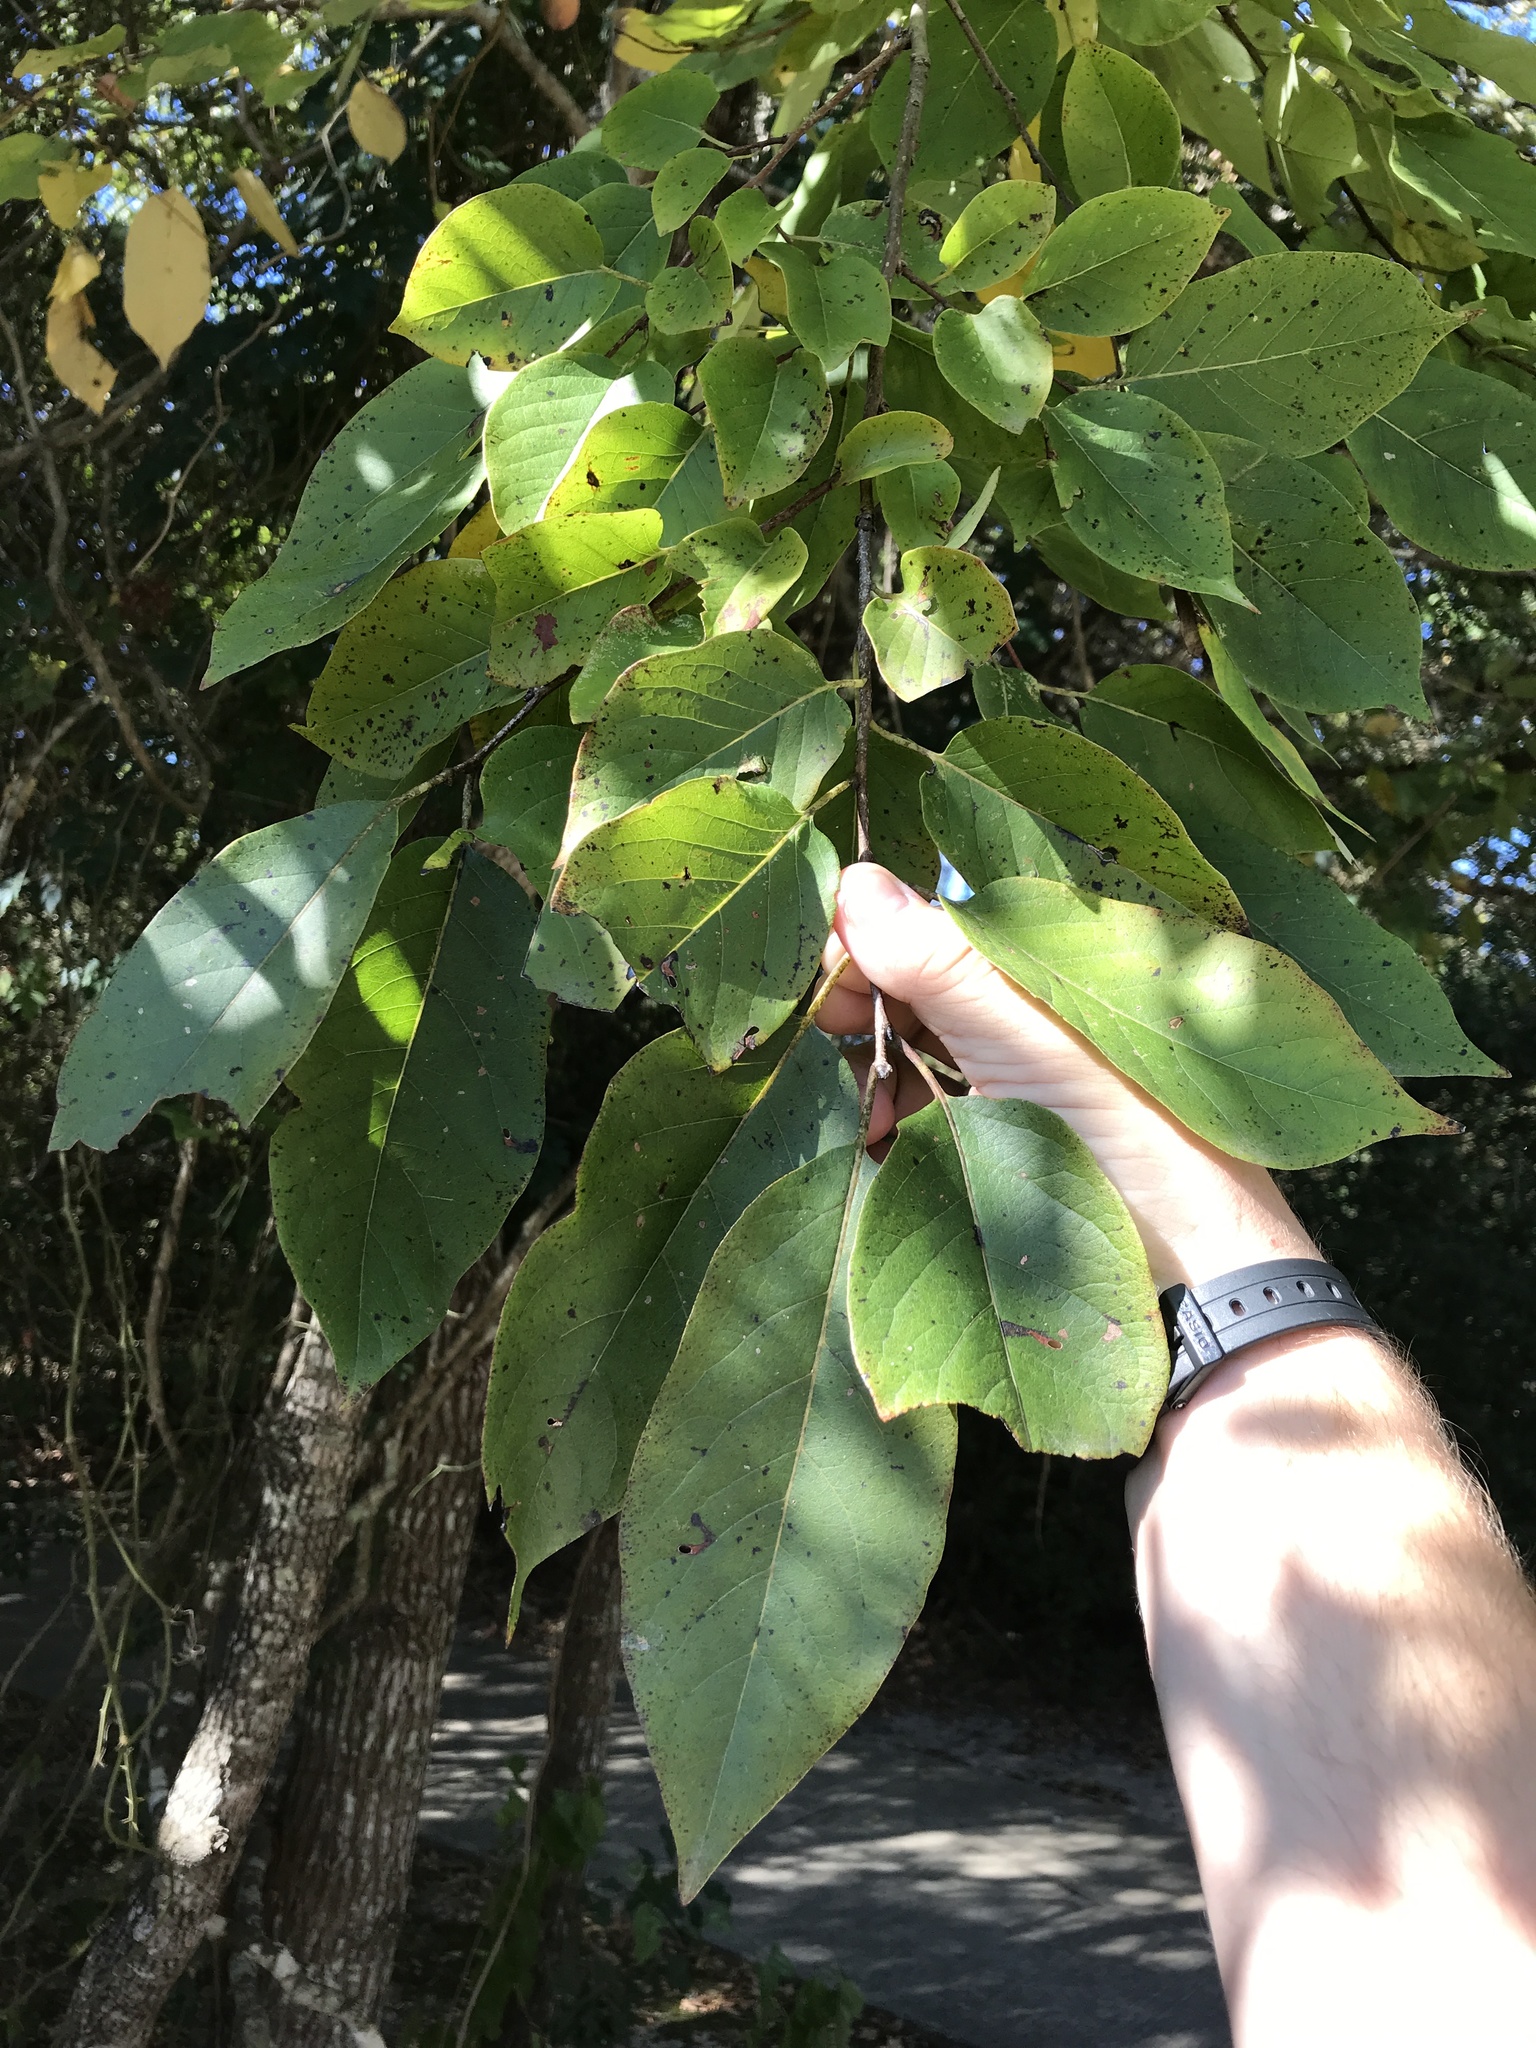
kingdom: Plantae
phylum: Tracheophyta
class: Magnoliopsida
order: Ericales
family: Ebenaceae
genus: Diospyros
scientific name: Diospyros virginiana
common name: Persimmon
